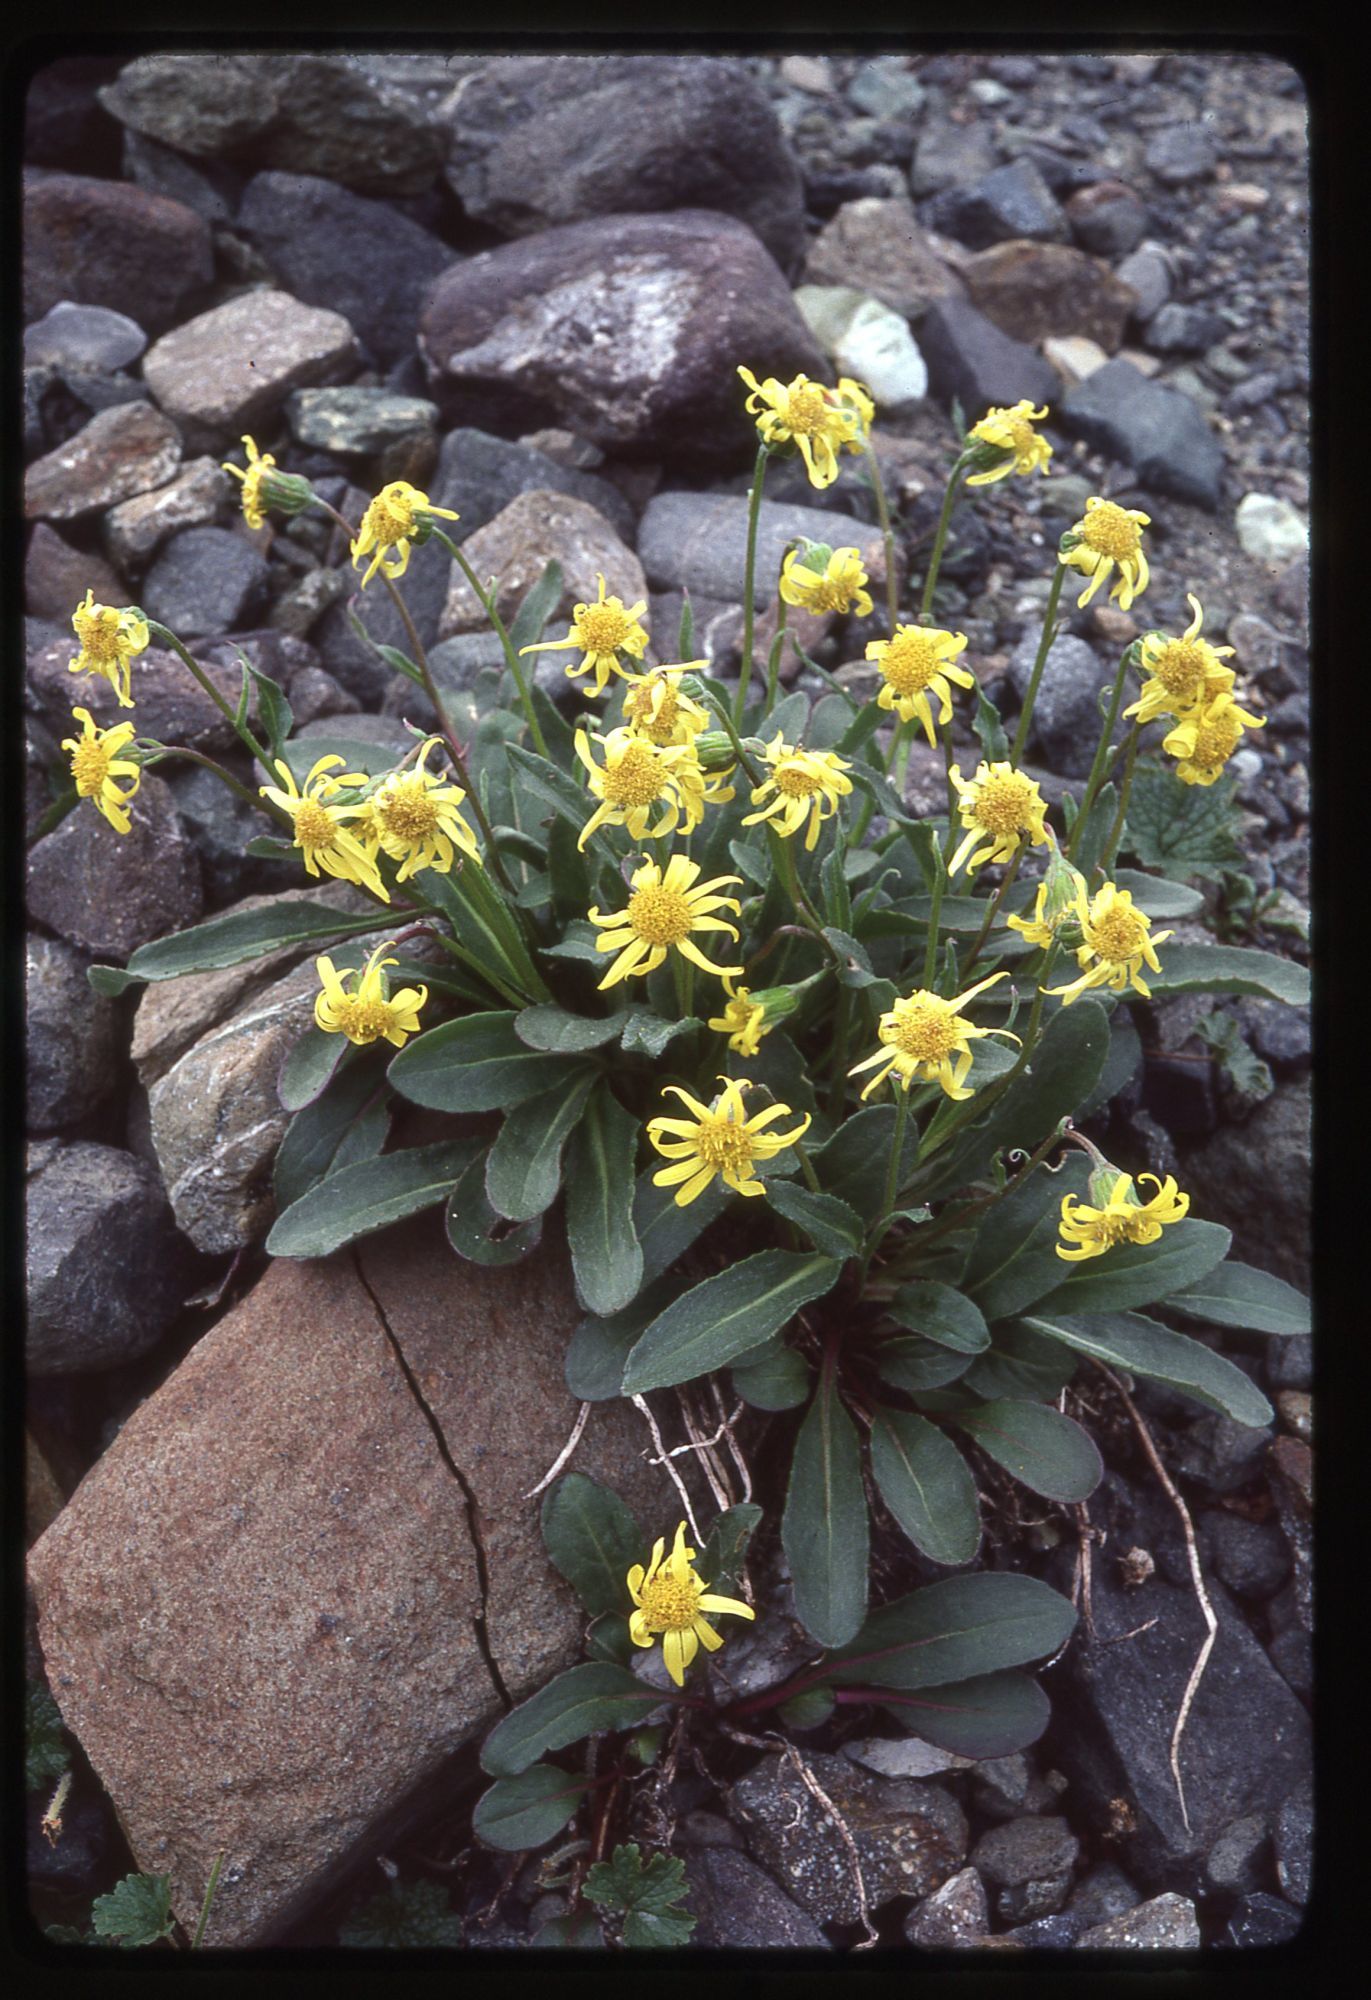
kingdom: Plantae
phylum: Tracheophyta
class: Magnoliopsida
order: Asterales
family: Asteraceae
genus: Senecio
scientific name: Senecio neowebsteri
